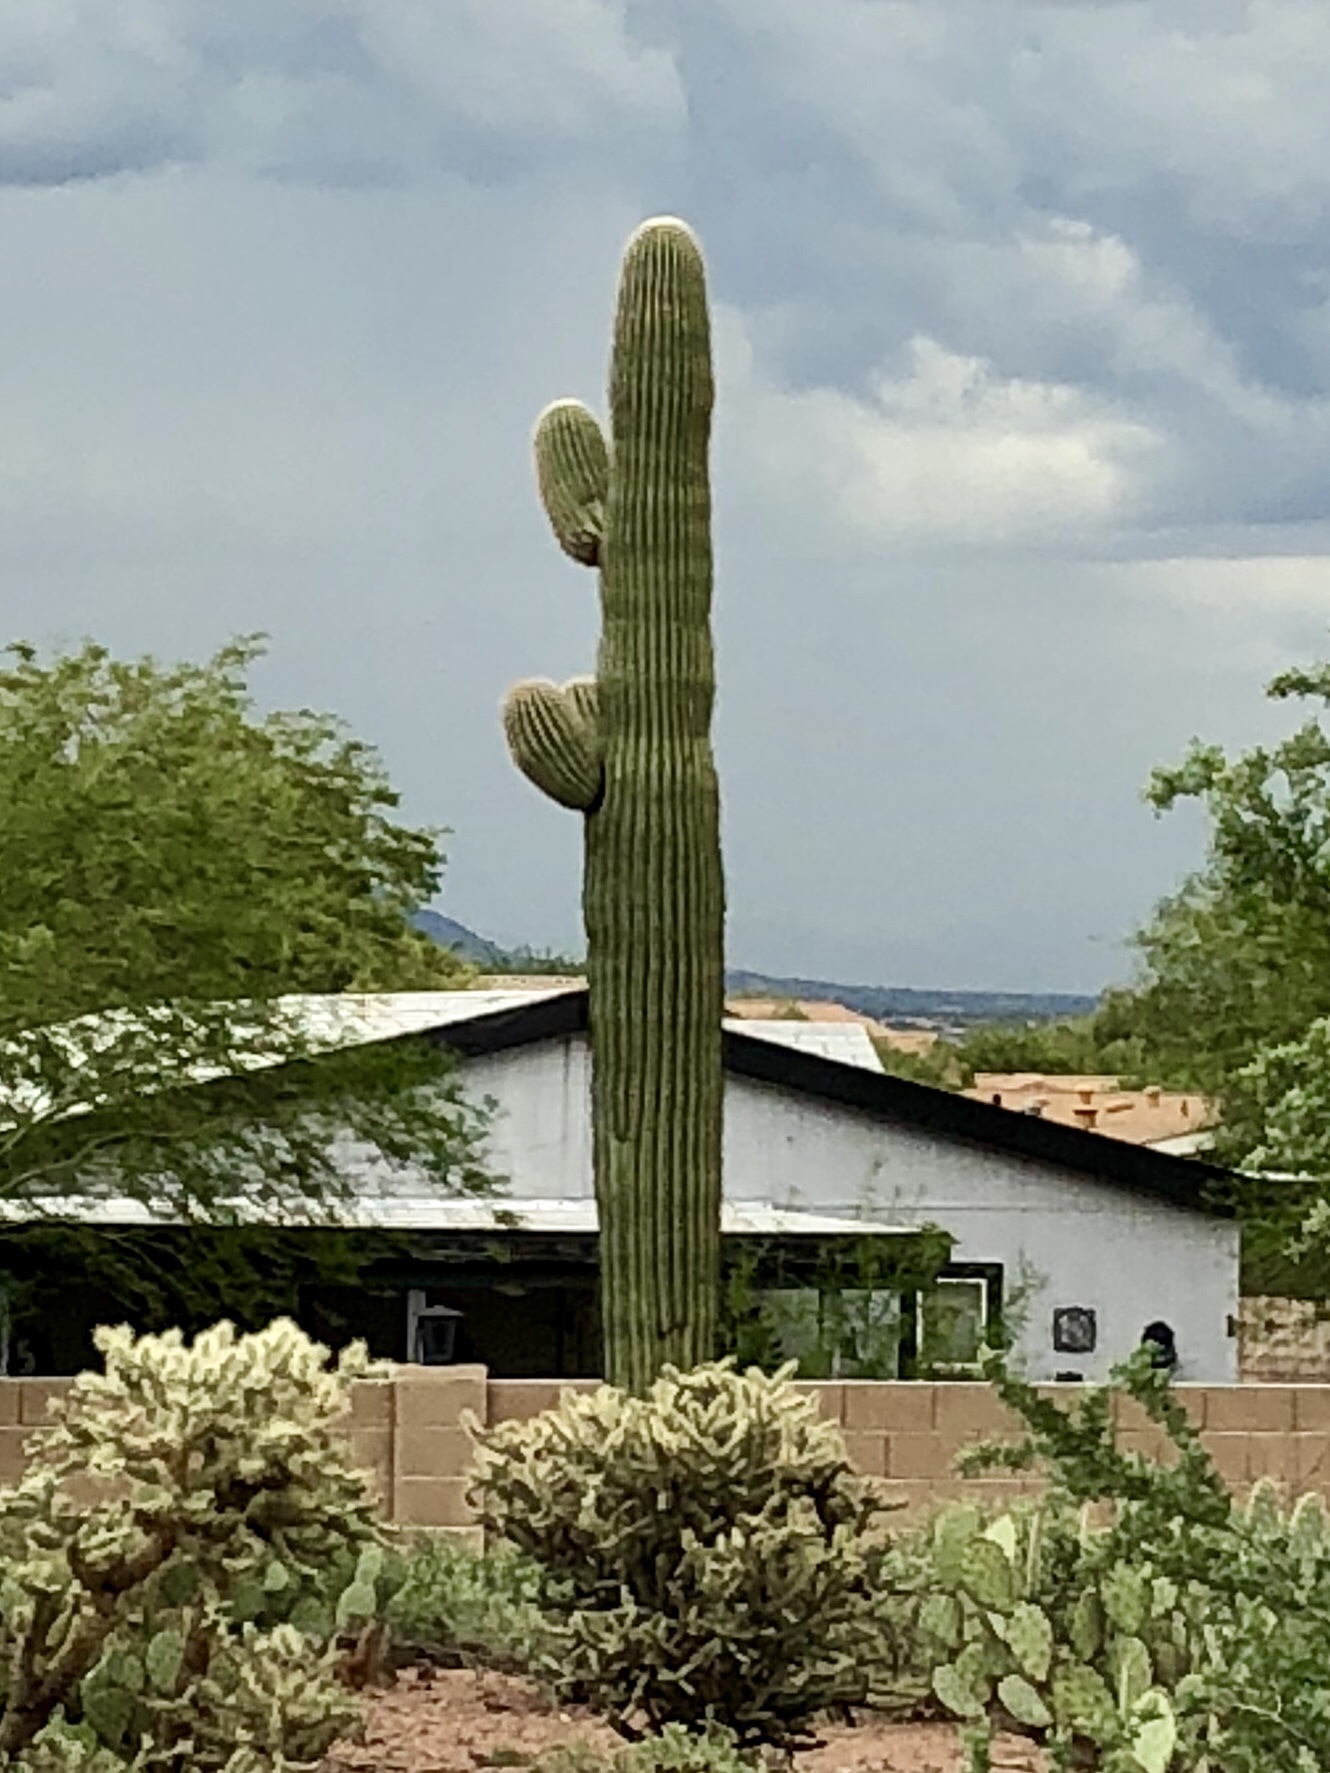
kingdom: Plantae
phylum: Tracheophyta
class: Magnoliopsida
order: Caryophyllales
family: Cactaceae
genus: Carnegiea
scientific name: Carnegiea gigantea
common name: Saguaro
